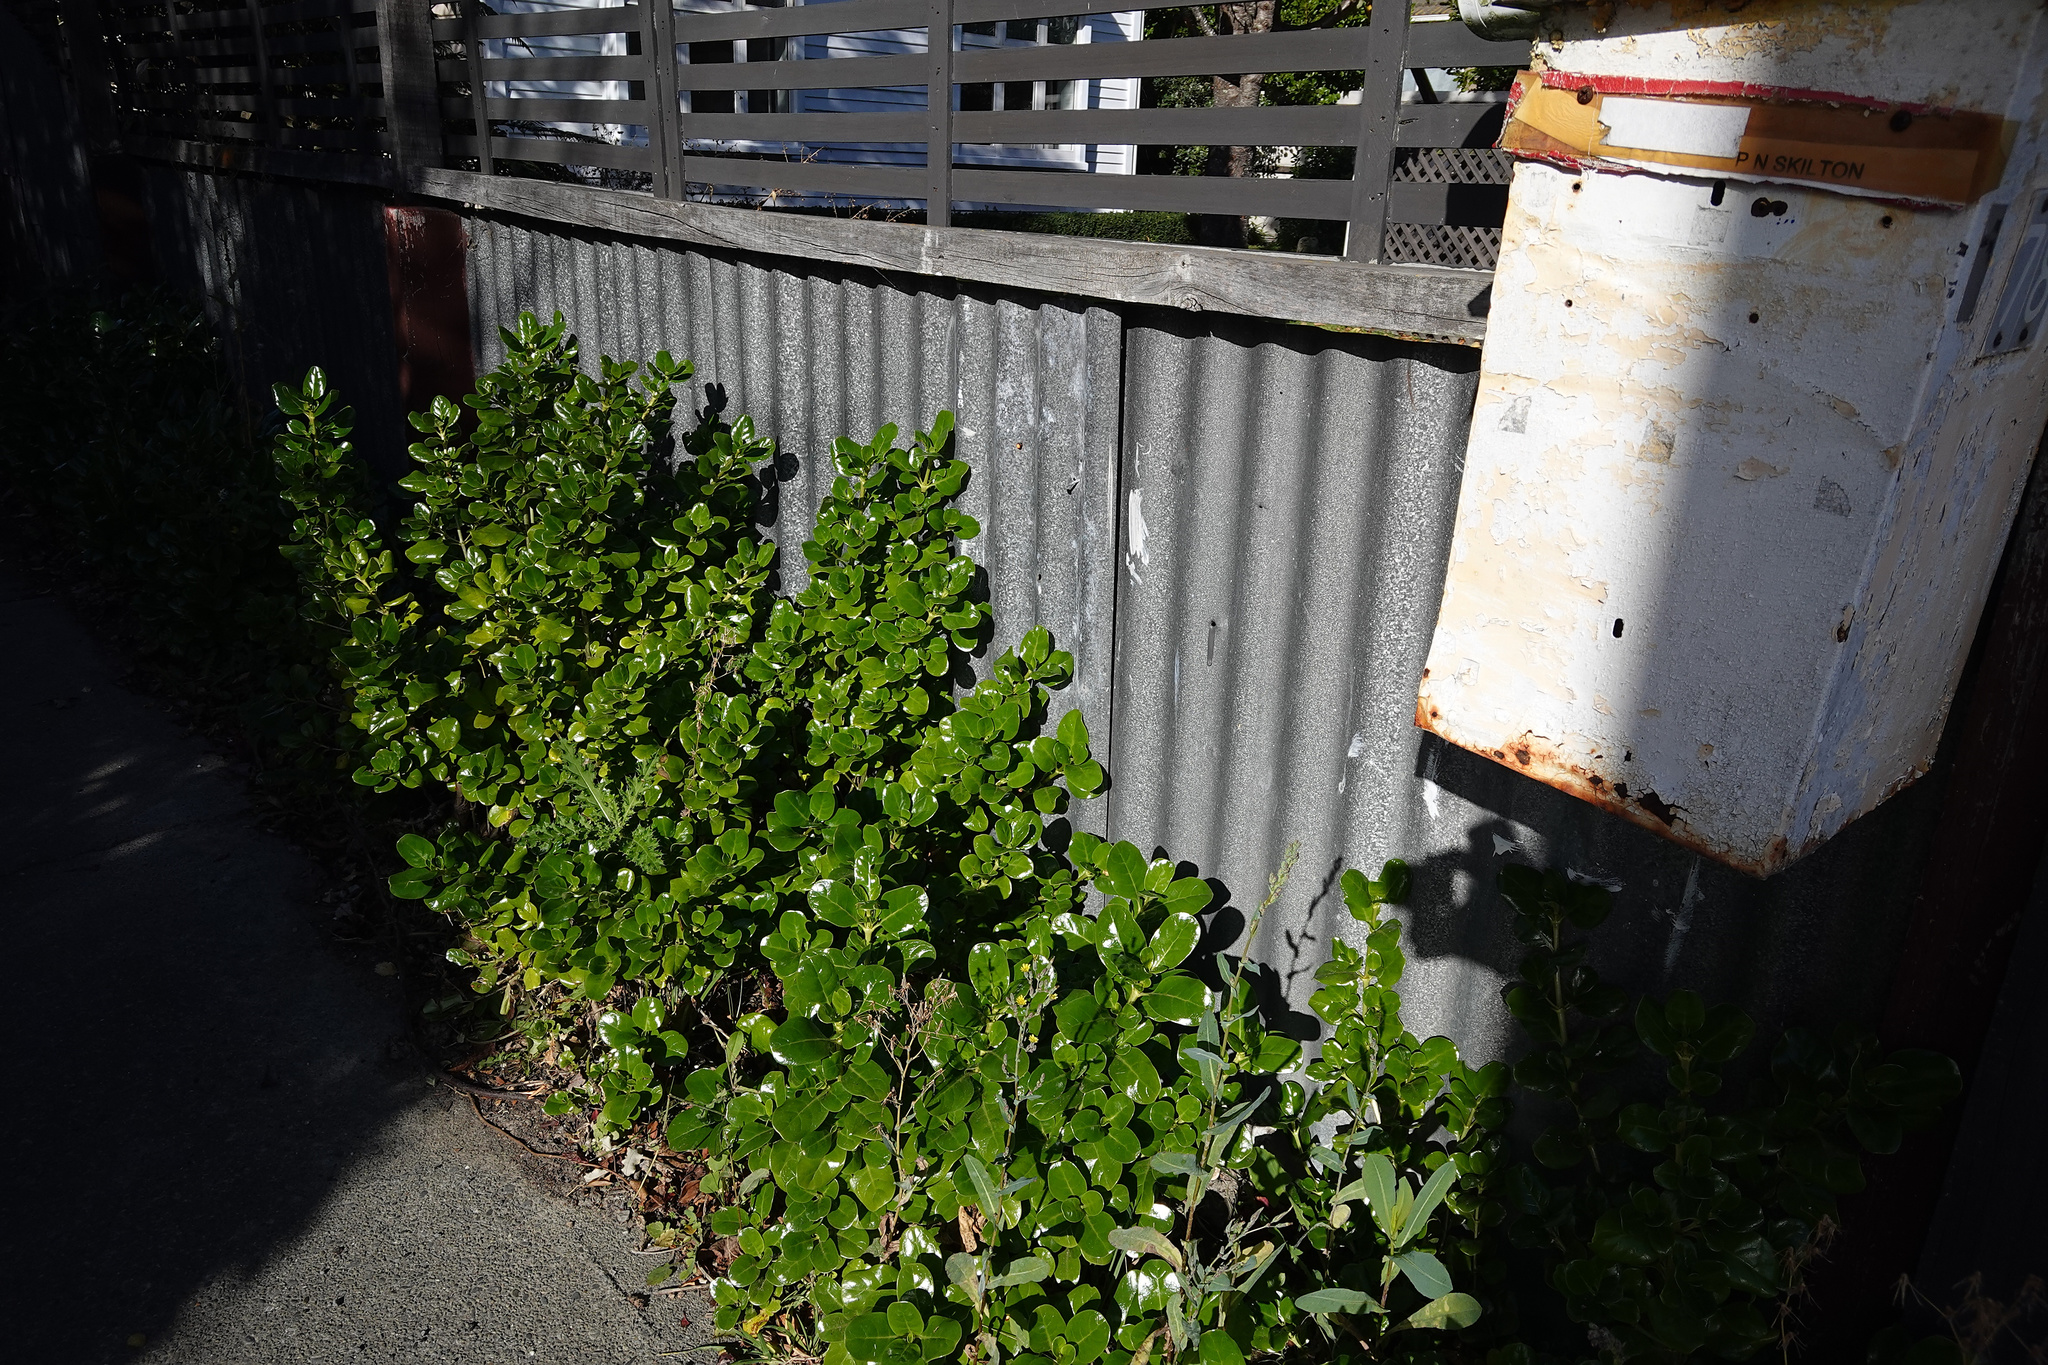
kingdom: Plantae
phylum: Tracheophyta
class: Magnoliopsida
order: Gentianales
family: Rubiaceae
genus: Coprosma
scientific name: Coprosma repens
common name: Tree bedstraw
